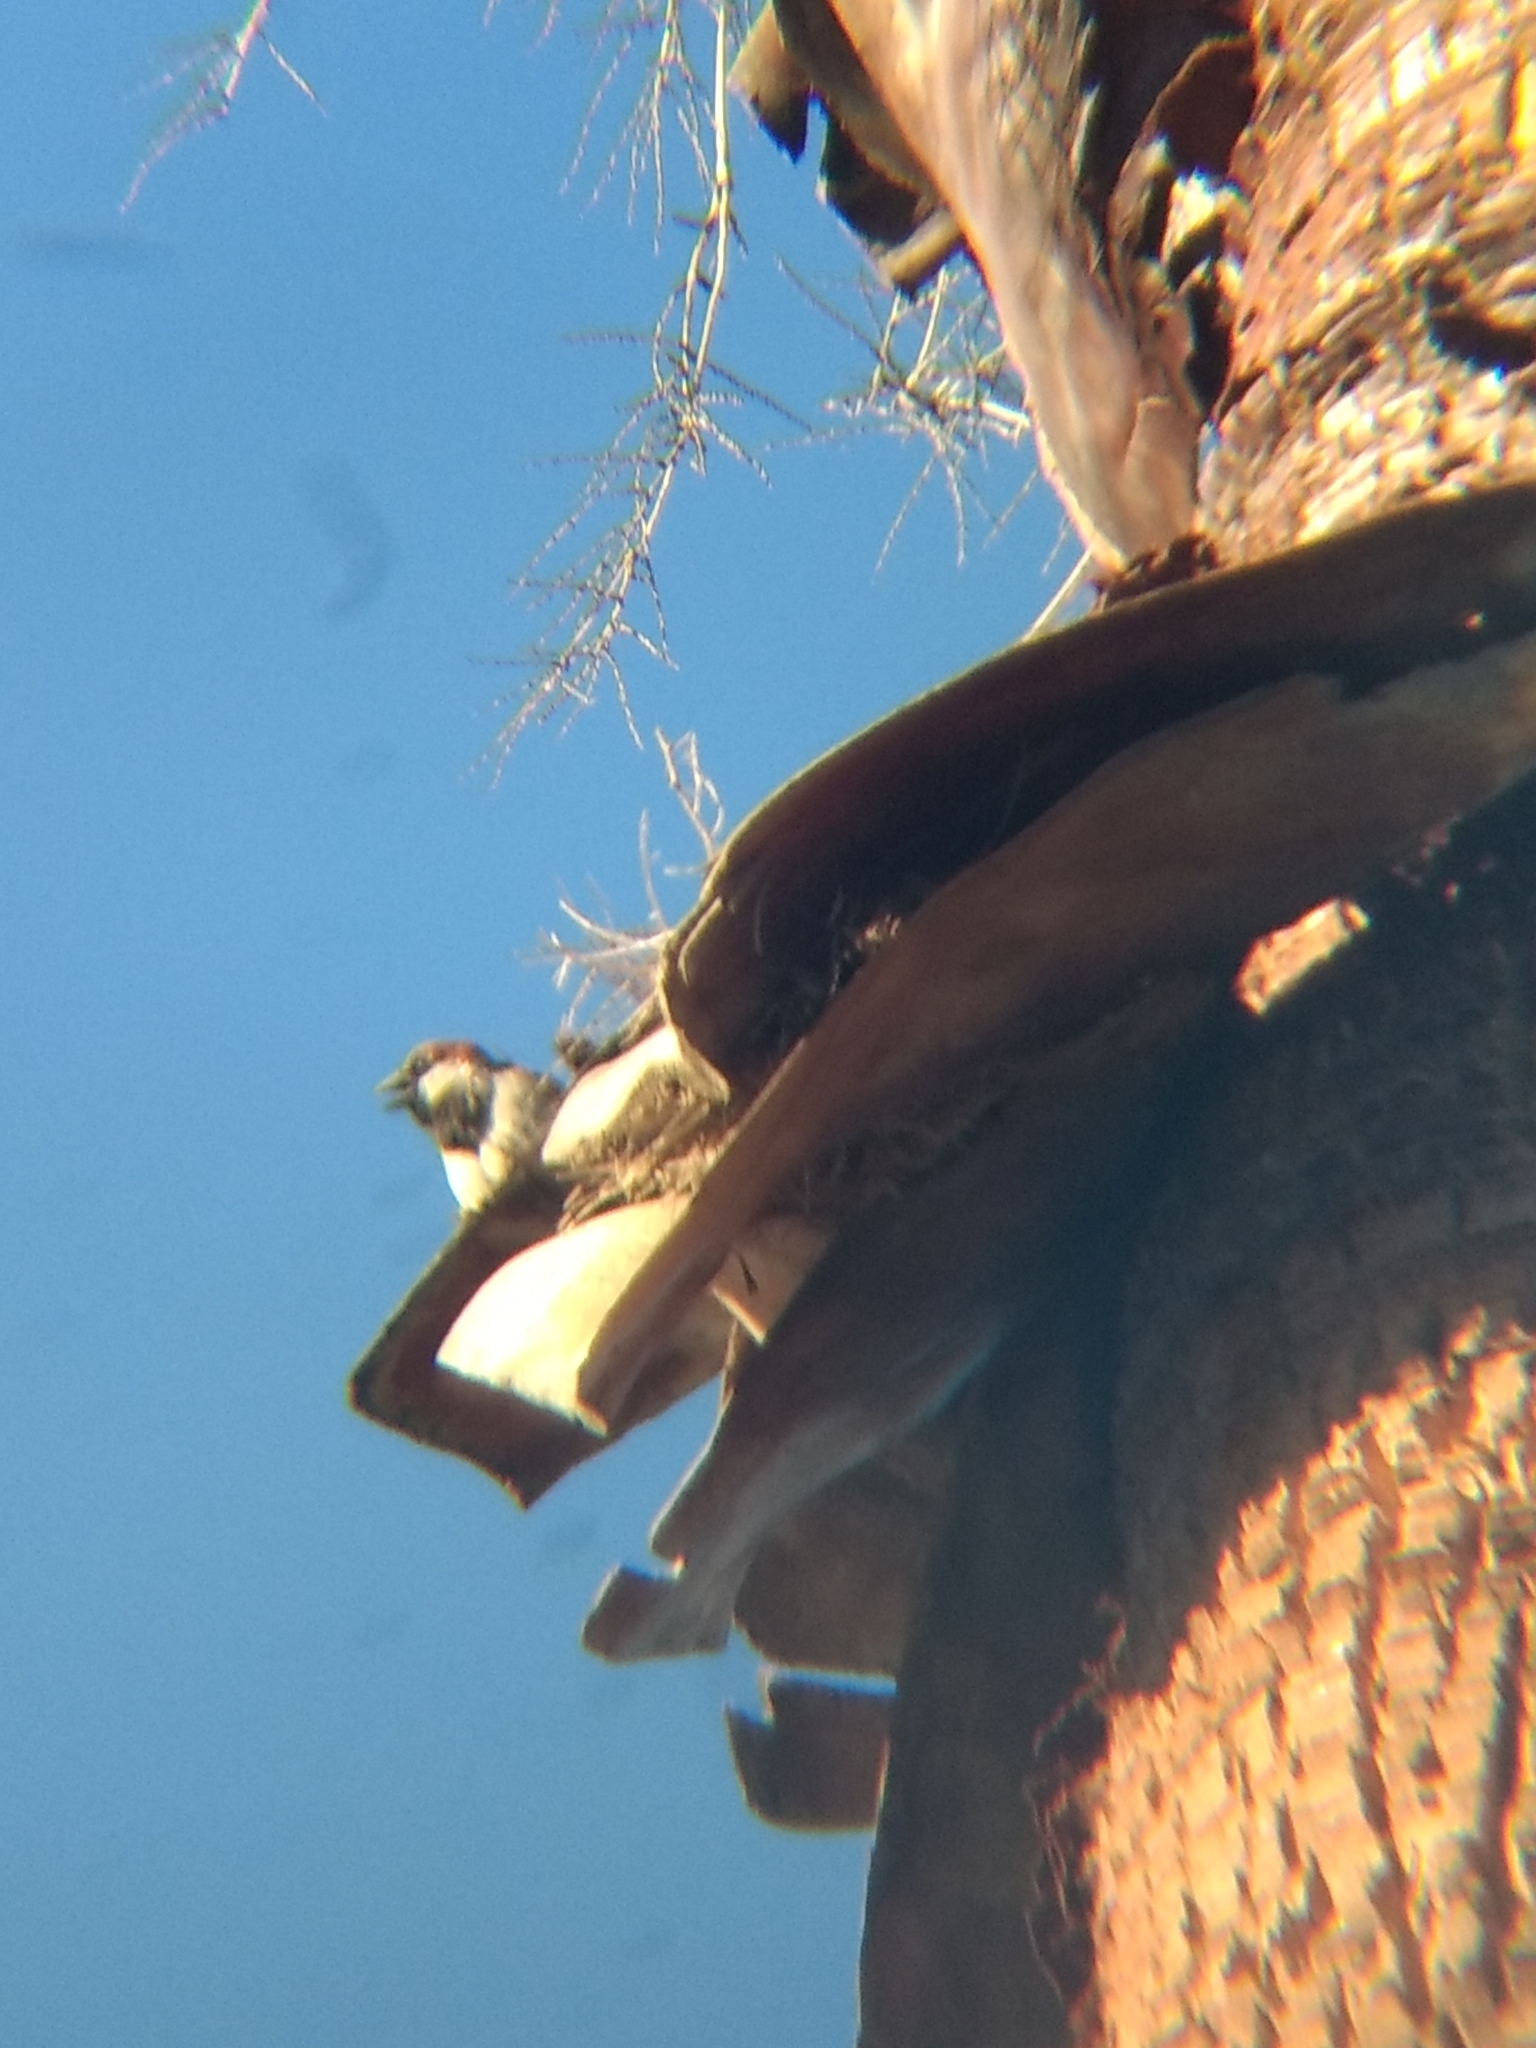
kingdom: Animalia
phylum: Chordata
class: Aves
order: Passeriformes
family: Passeridae
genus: Passer
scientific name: Passer domesticus
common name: House sparrow
